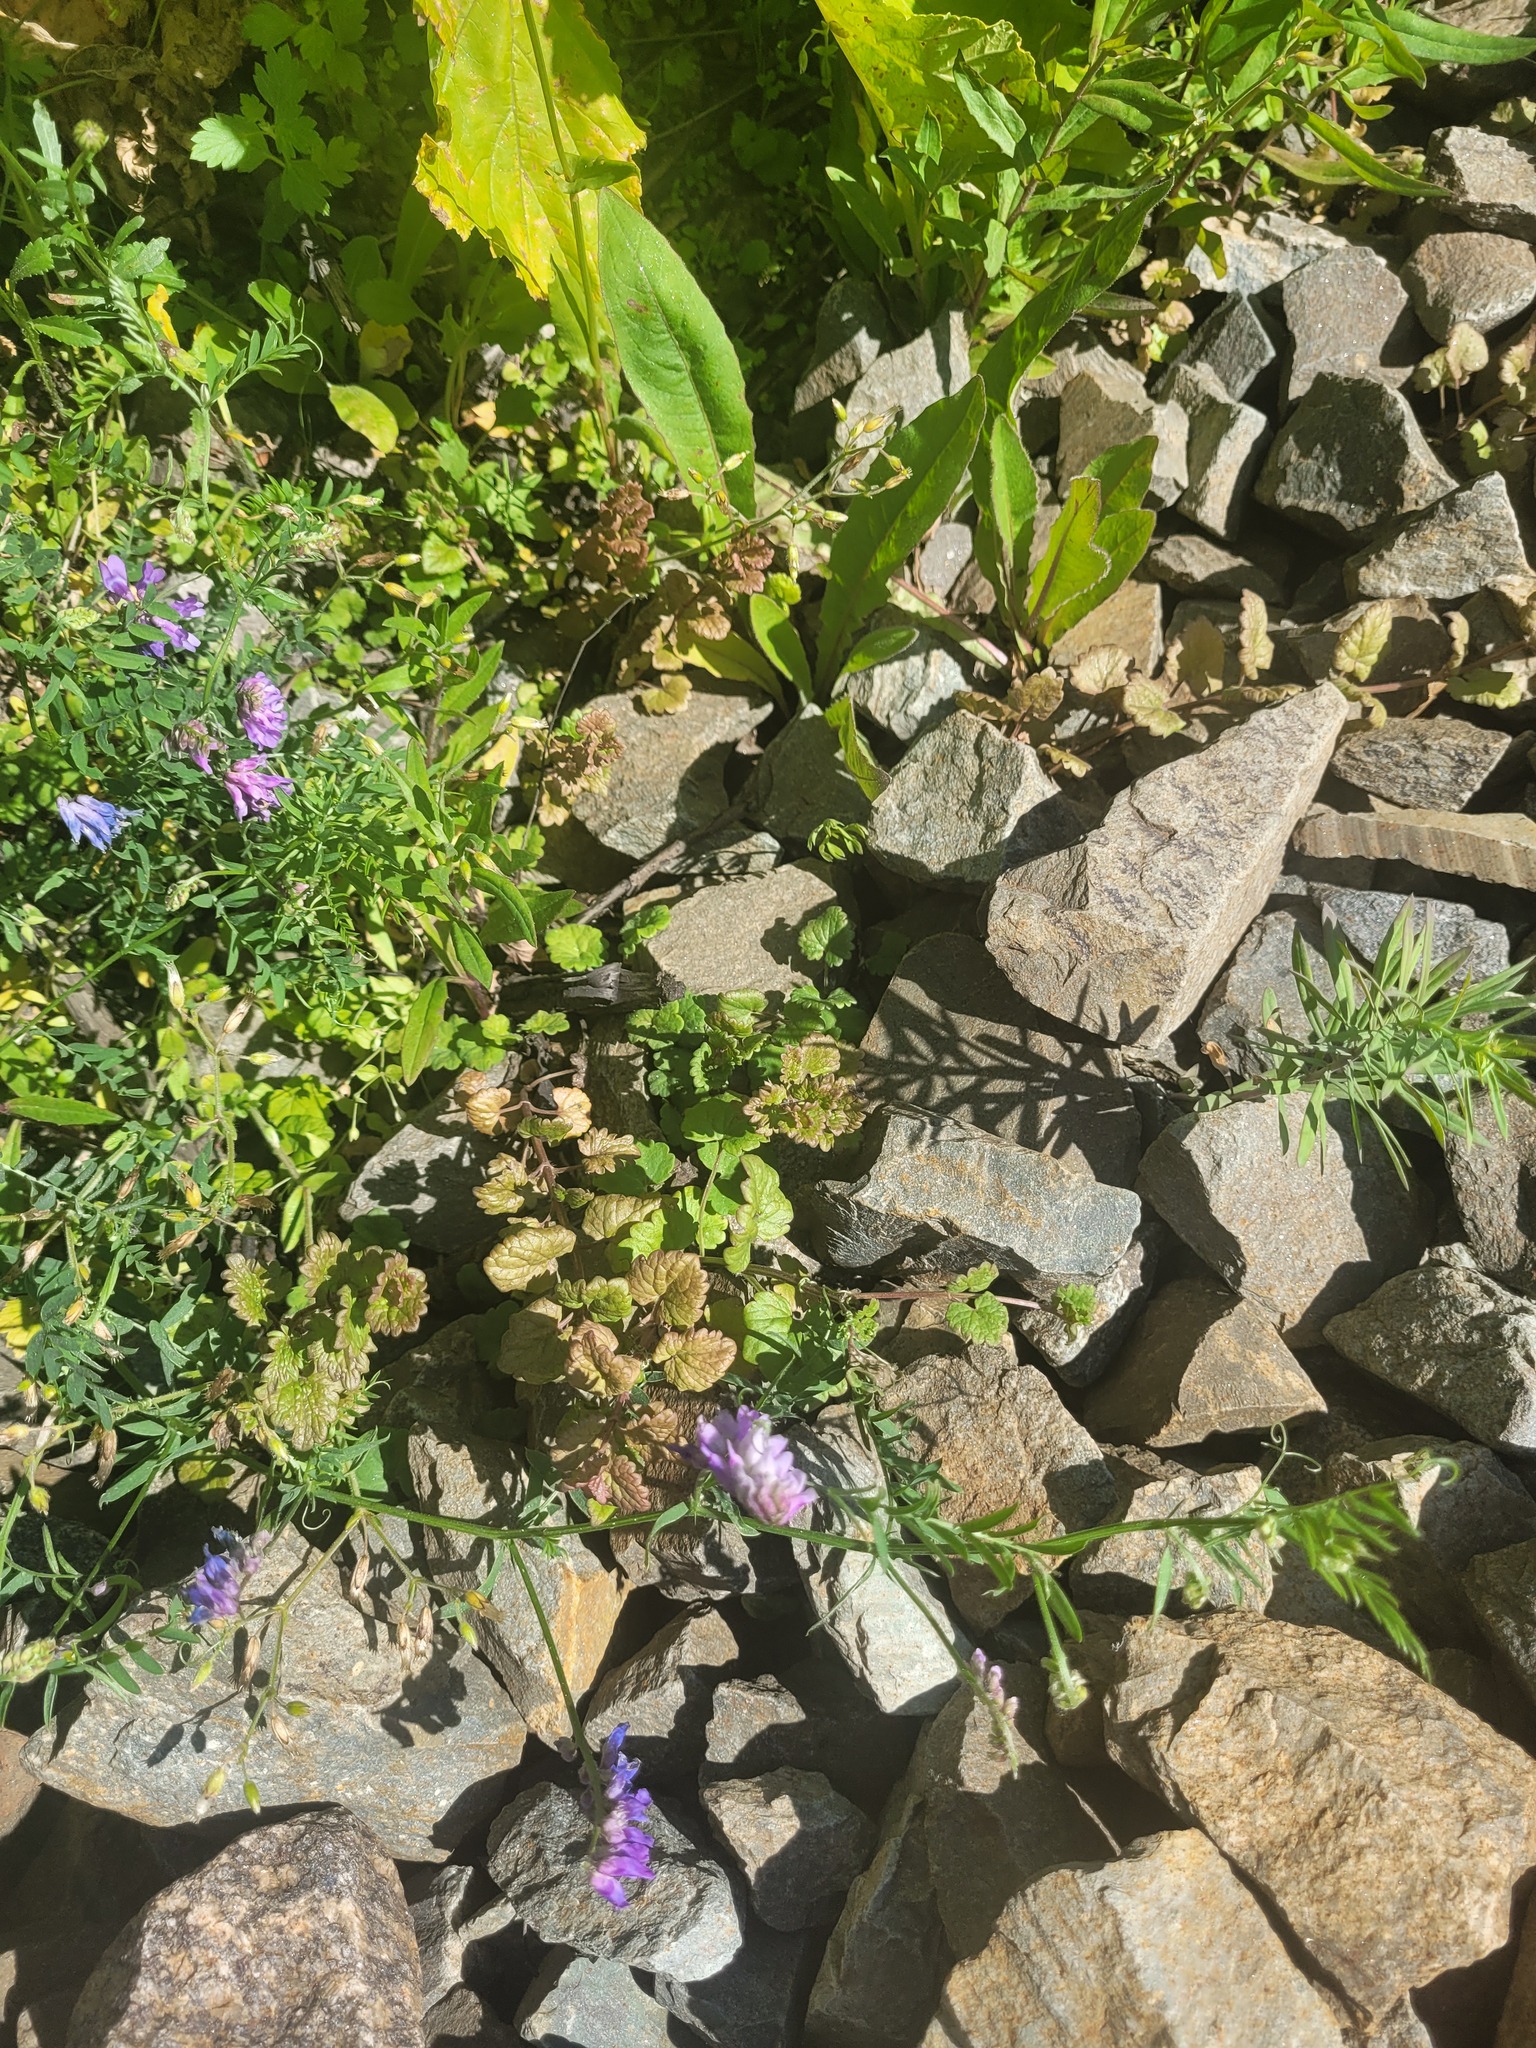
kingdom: Plantae
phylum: Tracheophyta
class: Magnoliopsida
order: Lamiales
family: Lamiaceae
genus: Glechoma
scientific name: Glechoma hederacea
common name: Ground ivy
